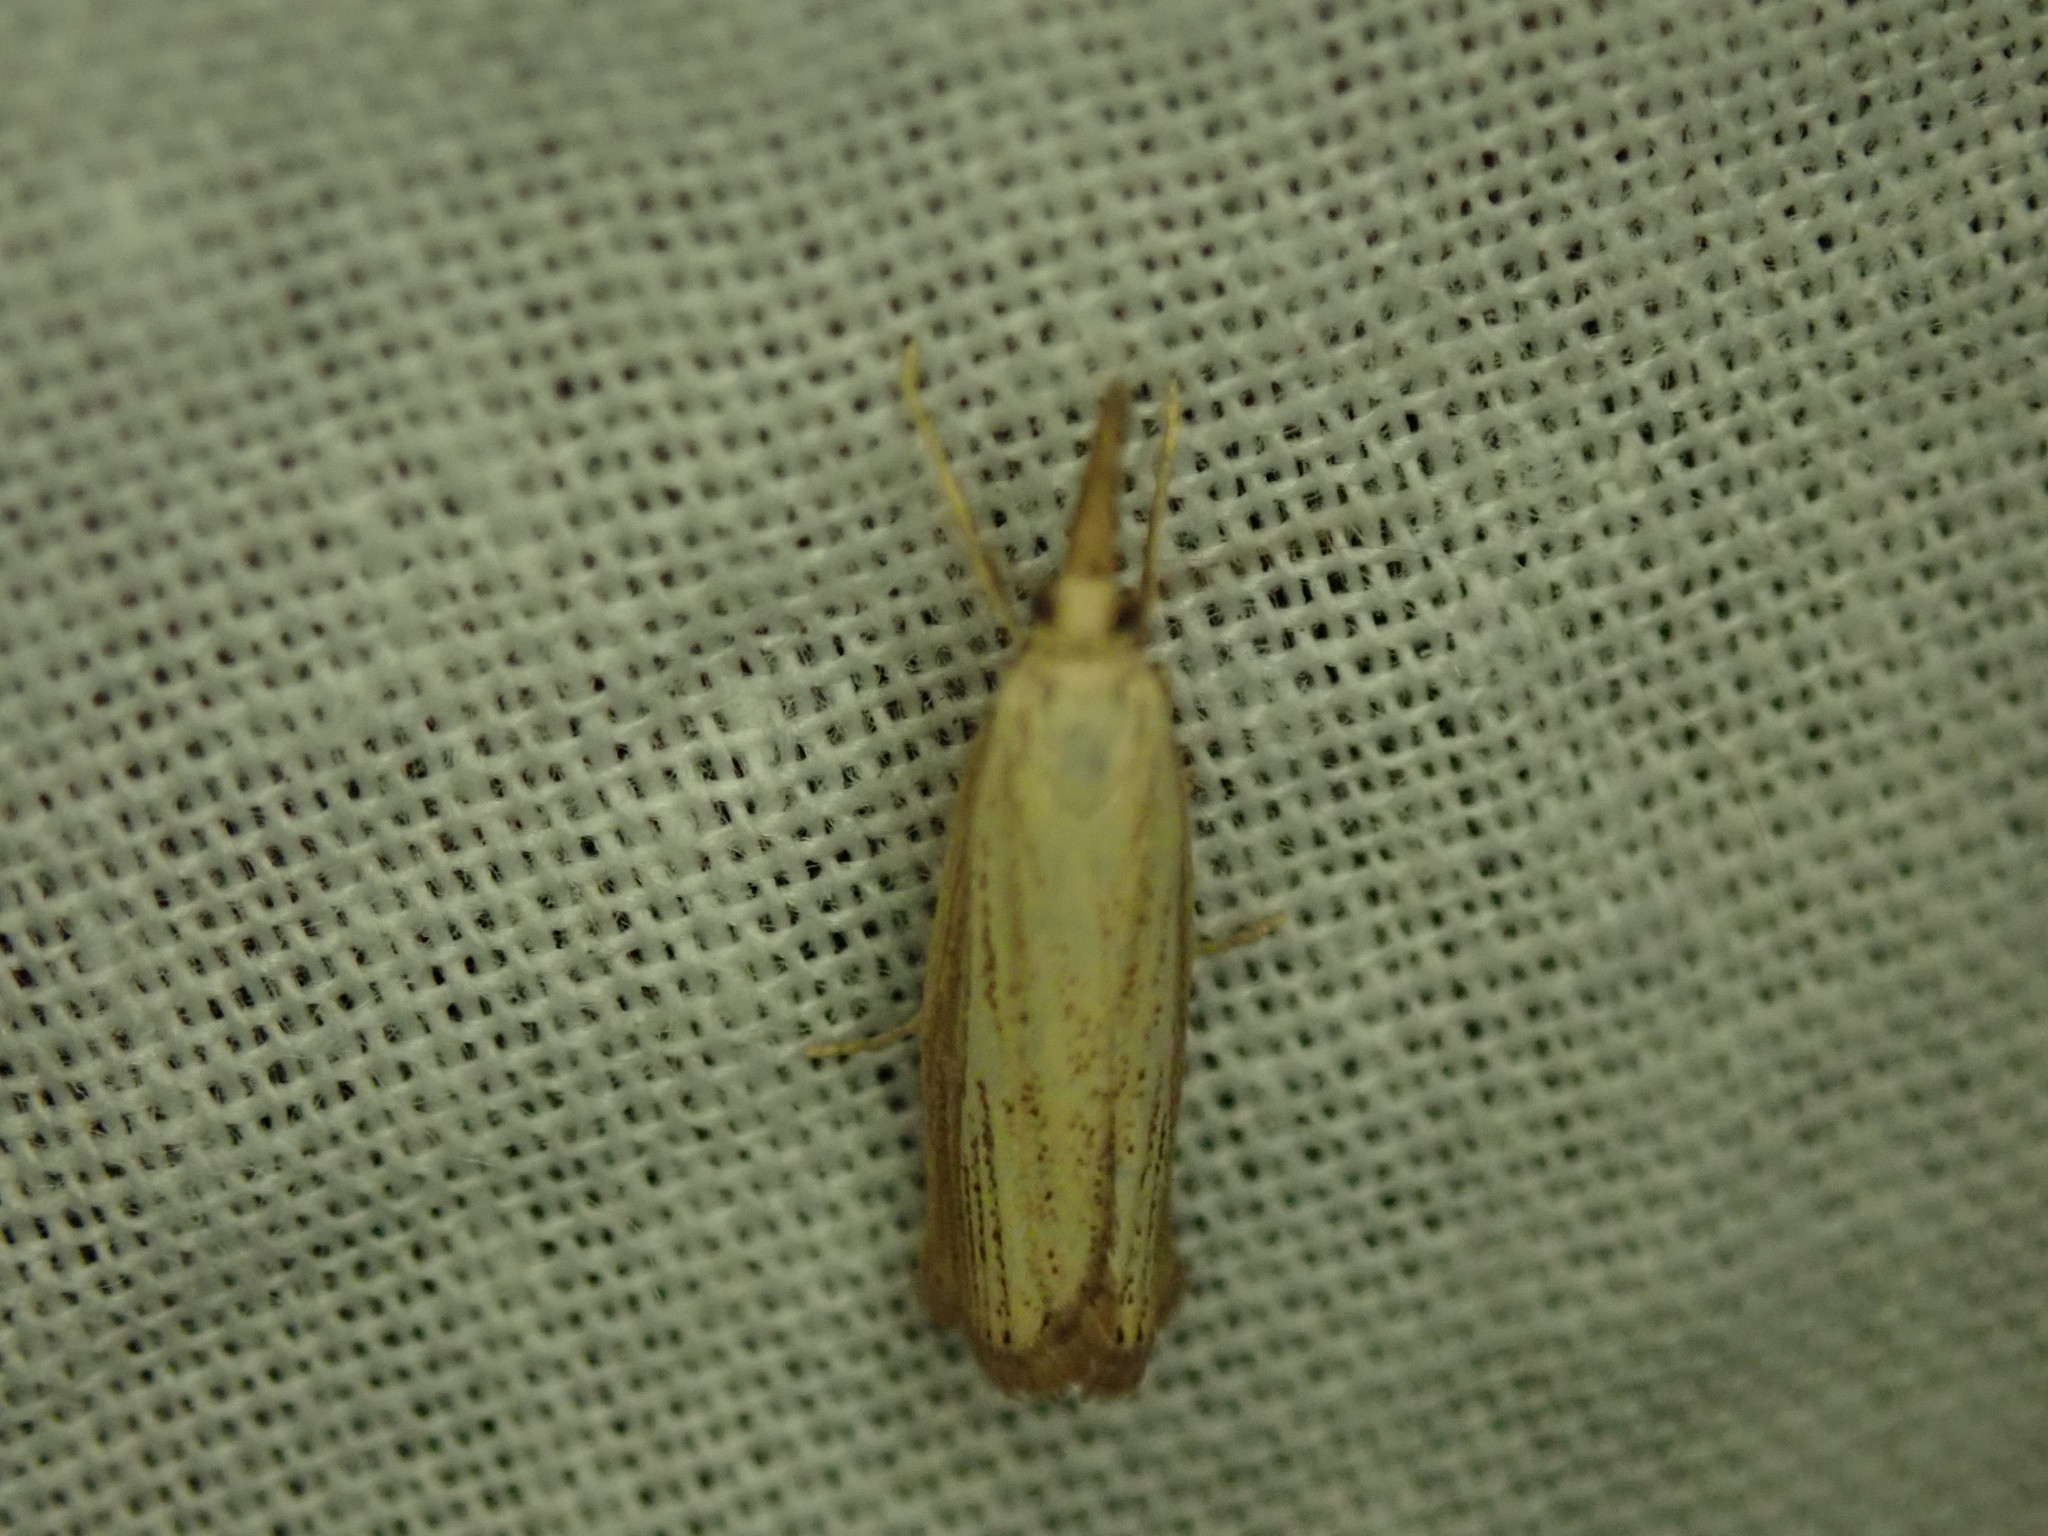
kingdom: Animalia
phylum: Arthropoda
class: Insecta
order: Lepidoptera
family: Crambidae
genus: Agriphila
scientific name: Agriphila straminella
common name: Straw grass-veneer
